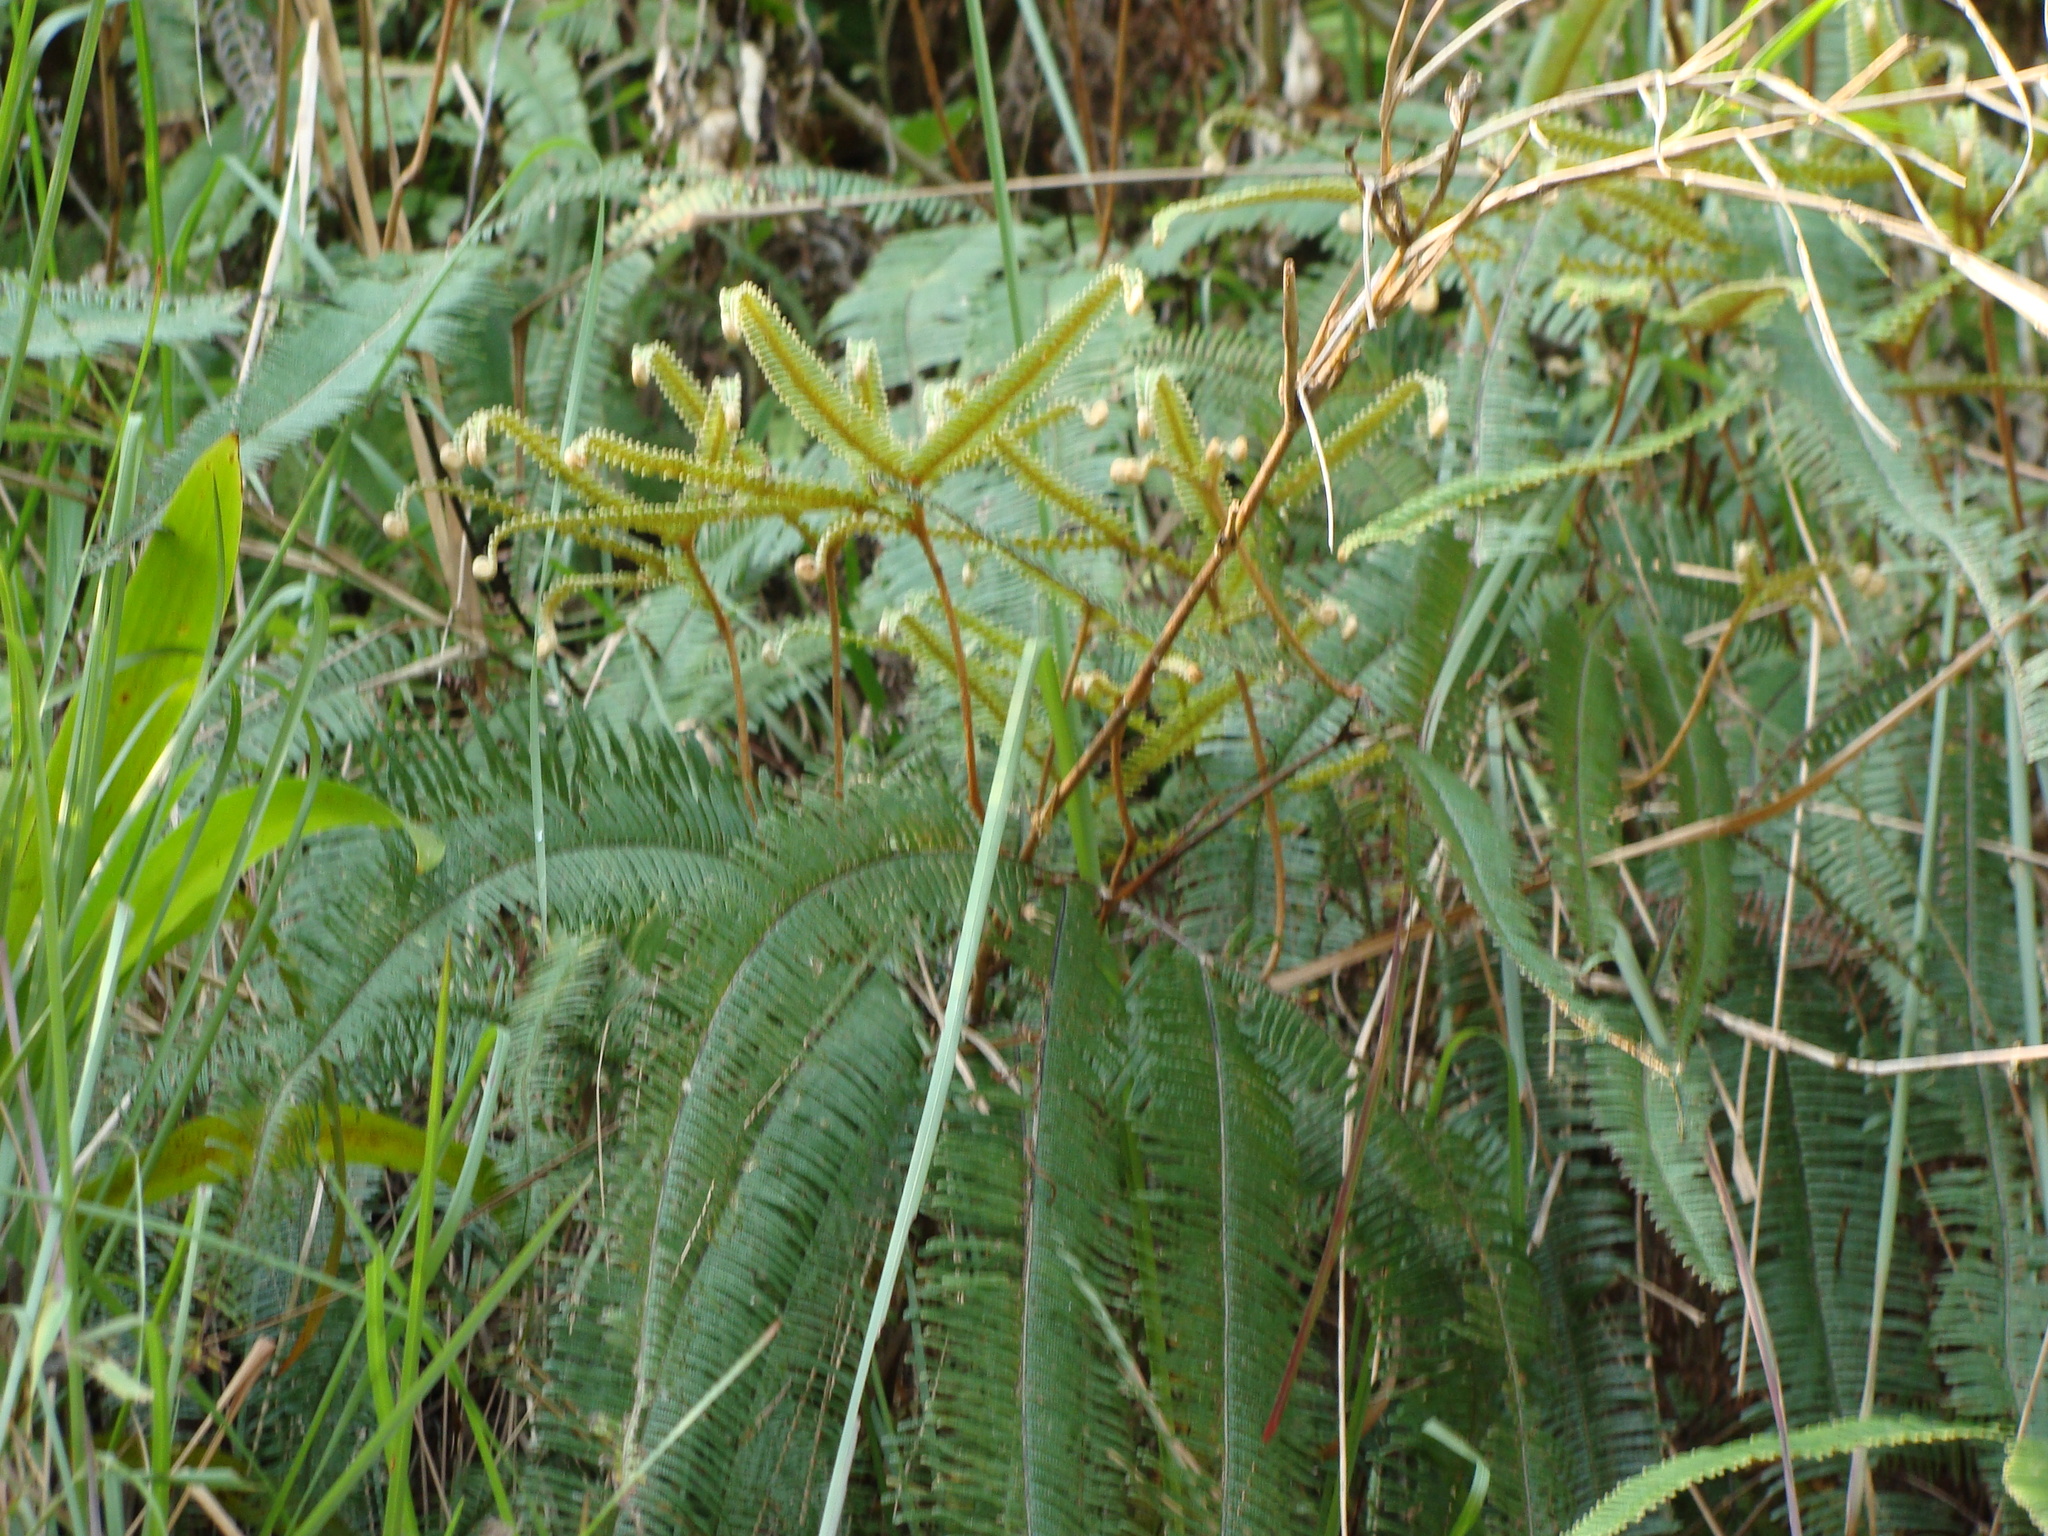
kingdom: Plantae
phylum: Tracheophyta
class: Polypodiopsida
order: Gleicheniales
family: Gleicheniaceae
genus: Sticherus
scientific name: Sticherus fulvus
